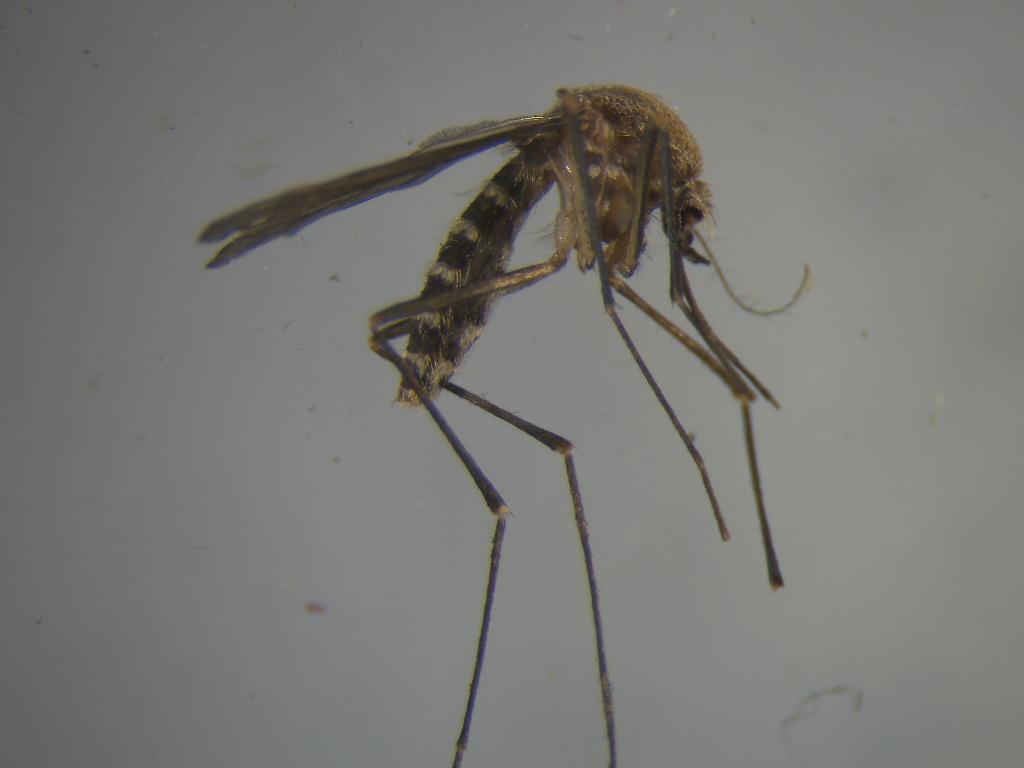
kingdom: Animalia
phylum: Arthropoda
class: Insecta
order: Diptera
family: Culicidae
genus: Culex
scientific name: Culex pervigilans
